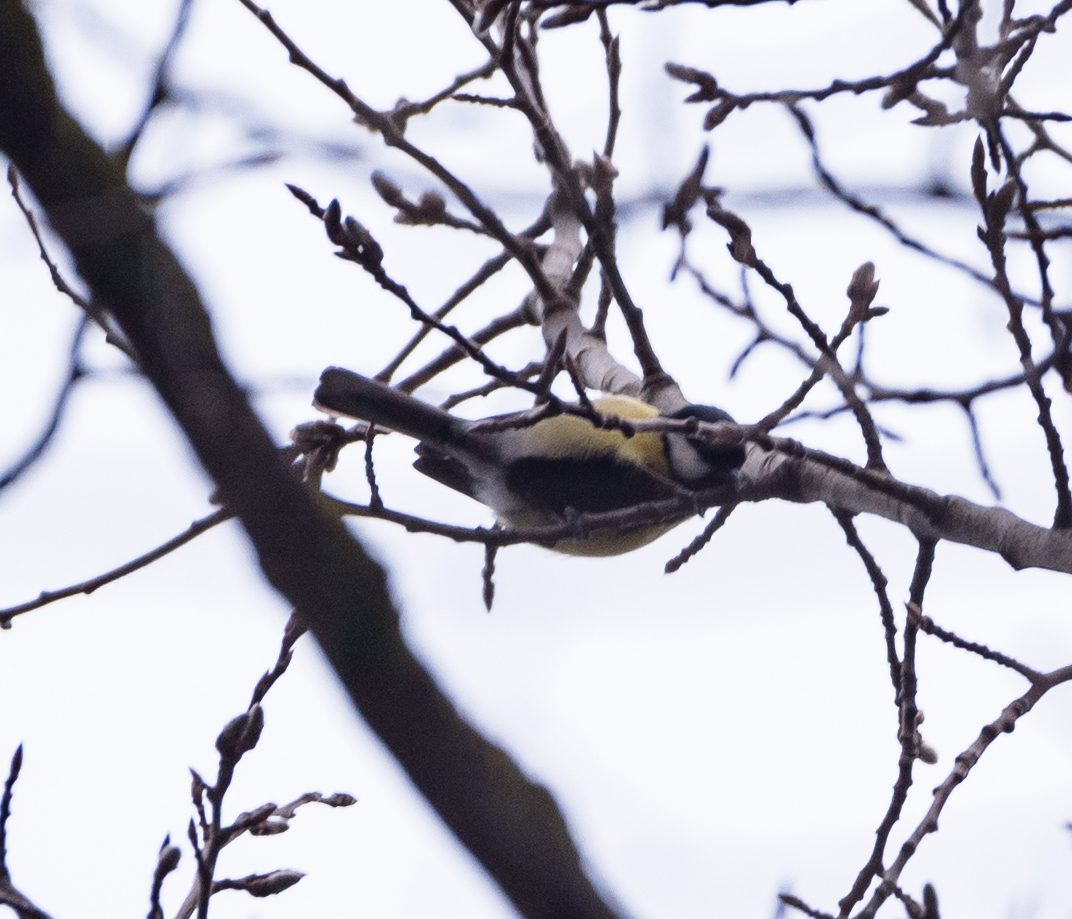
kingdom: Animalia
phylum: Chordata
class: Aves
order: Passeriformes
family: Paridae
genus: Parus
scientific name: Parus major
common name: Great tit
